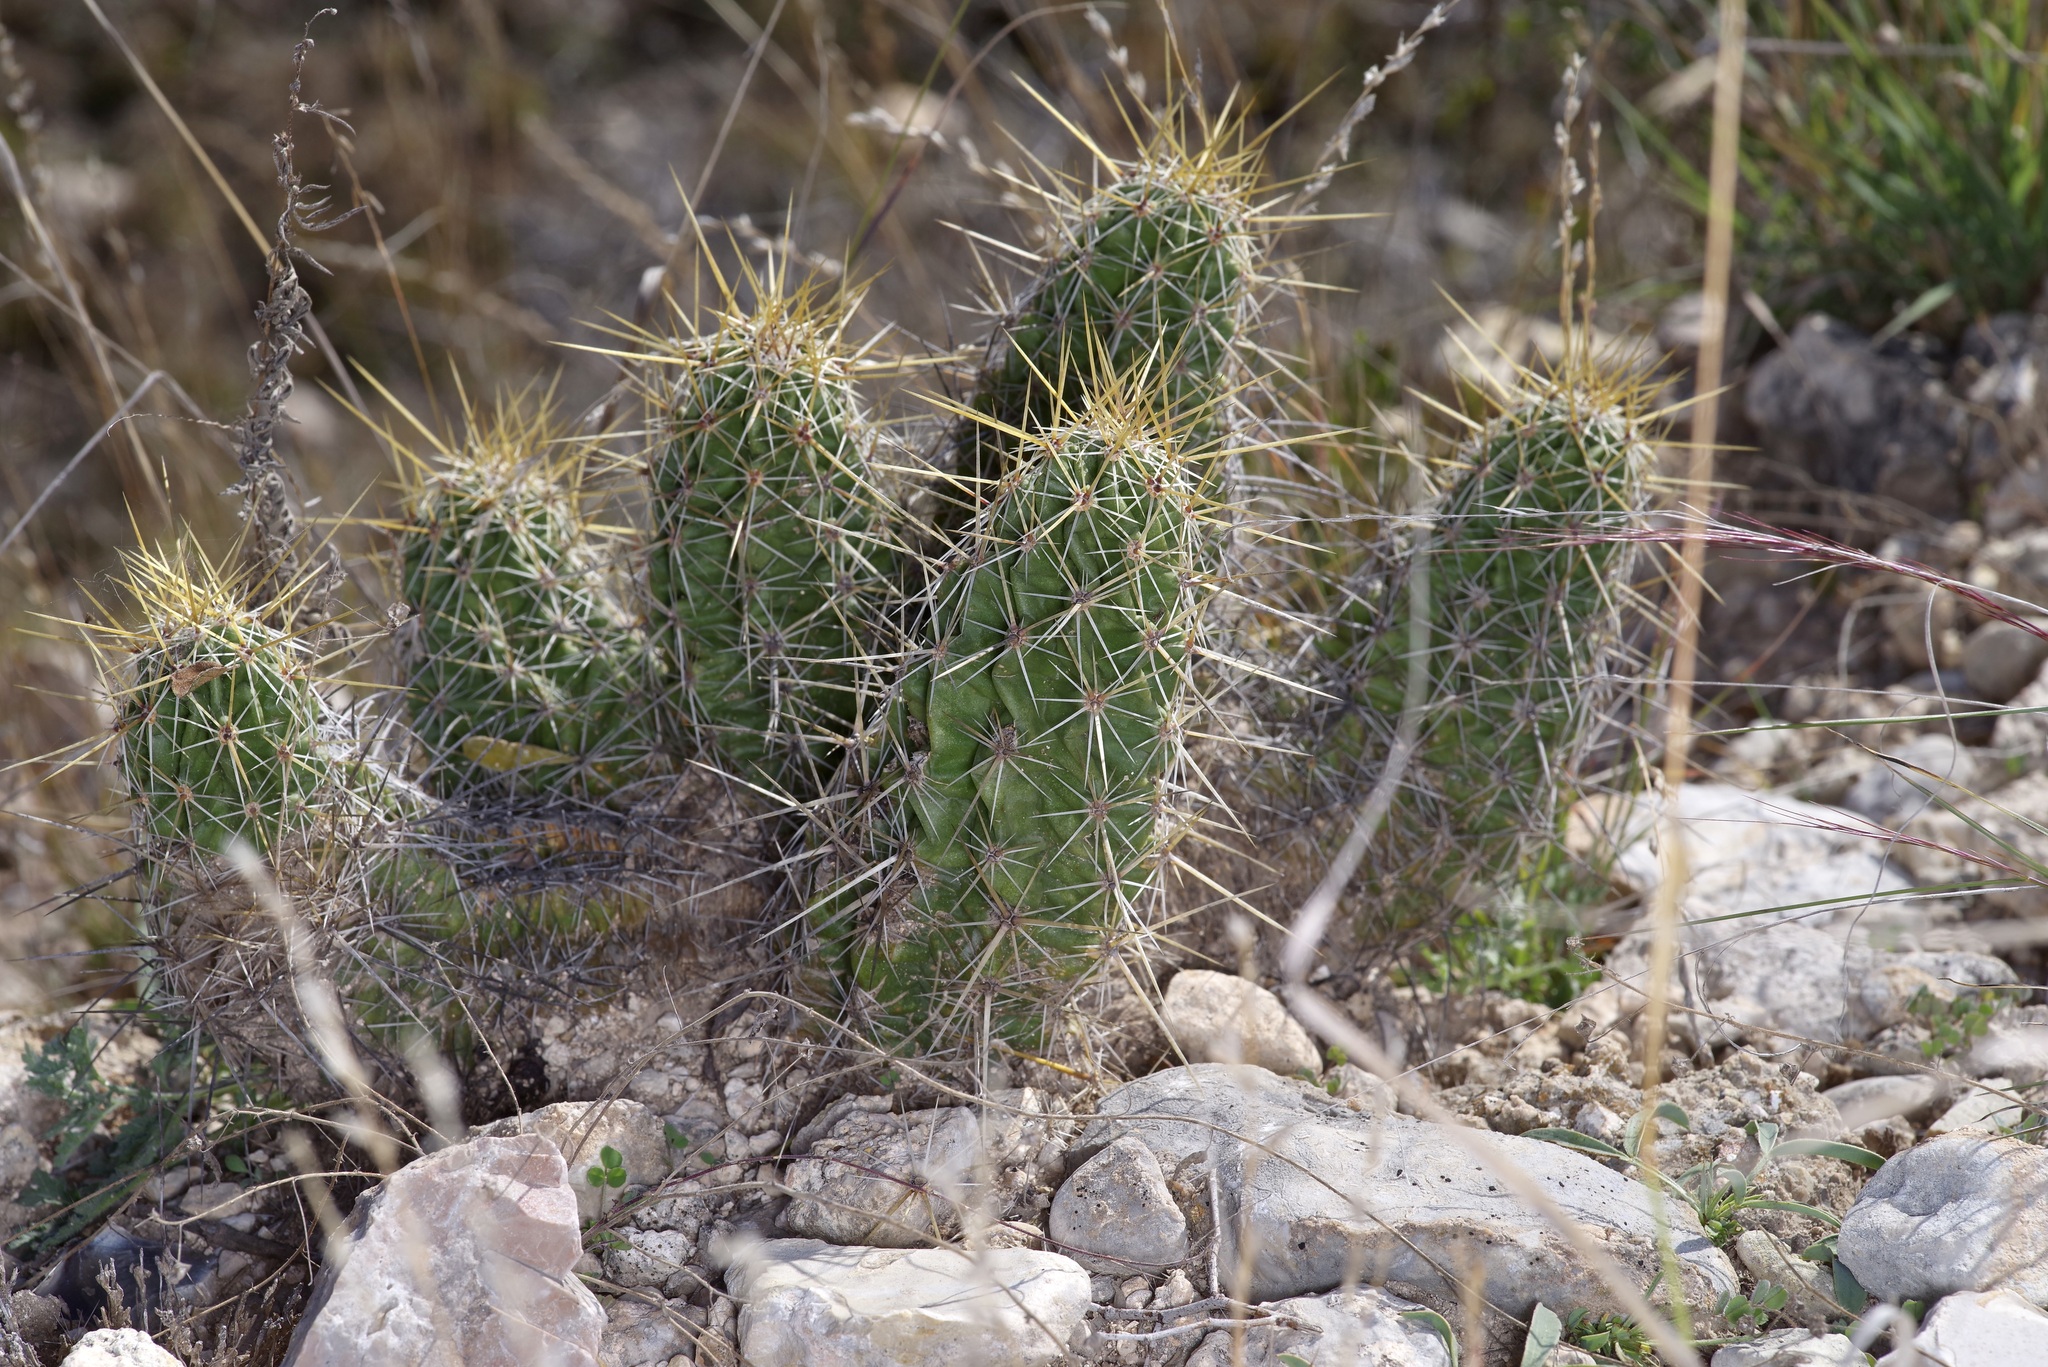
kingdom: Plantae
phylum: Tracheophyta
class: Magnoliopsida
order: Caryophyllales
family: Cactaceae
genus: Echinocereus
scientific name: Echinocereus enneacanthus
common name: Pitaya
